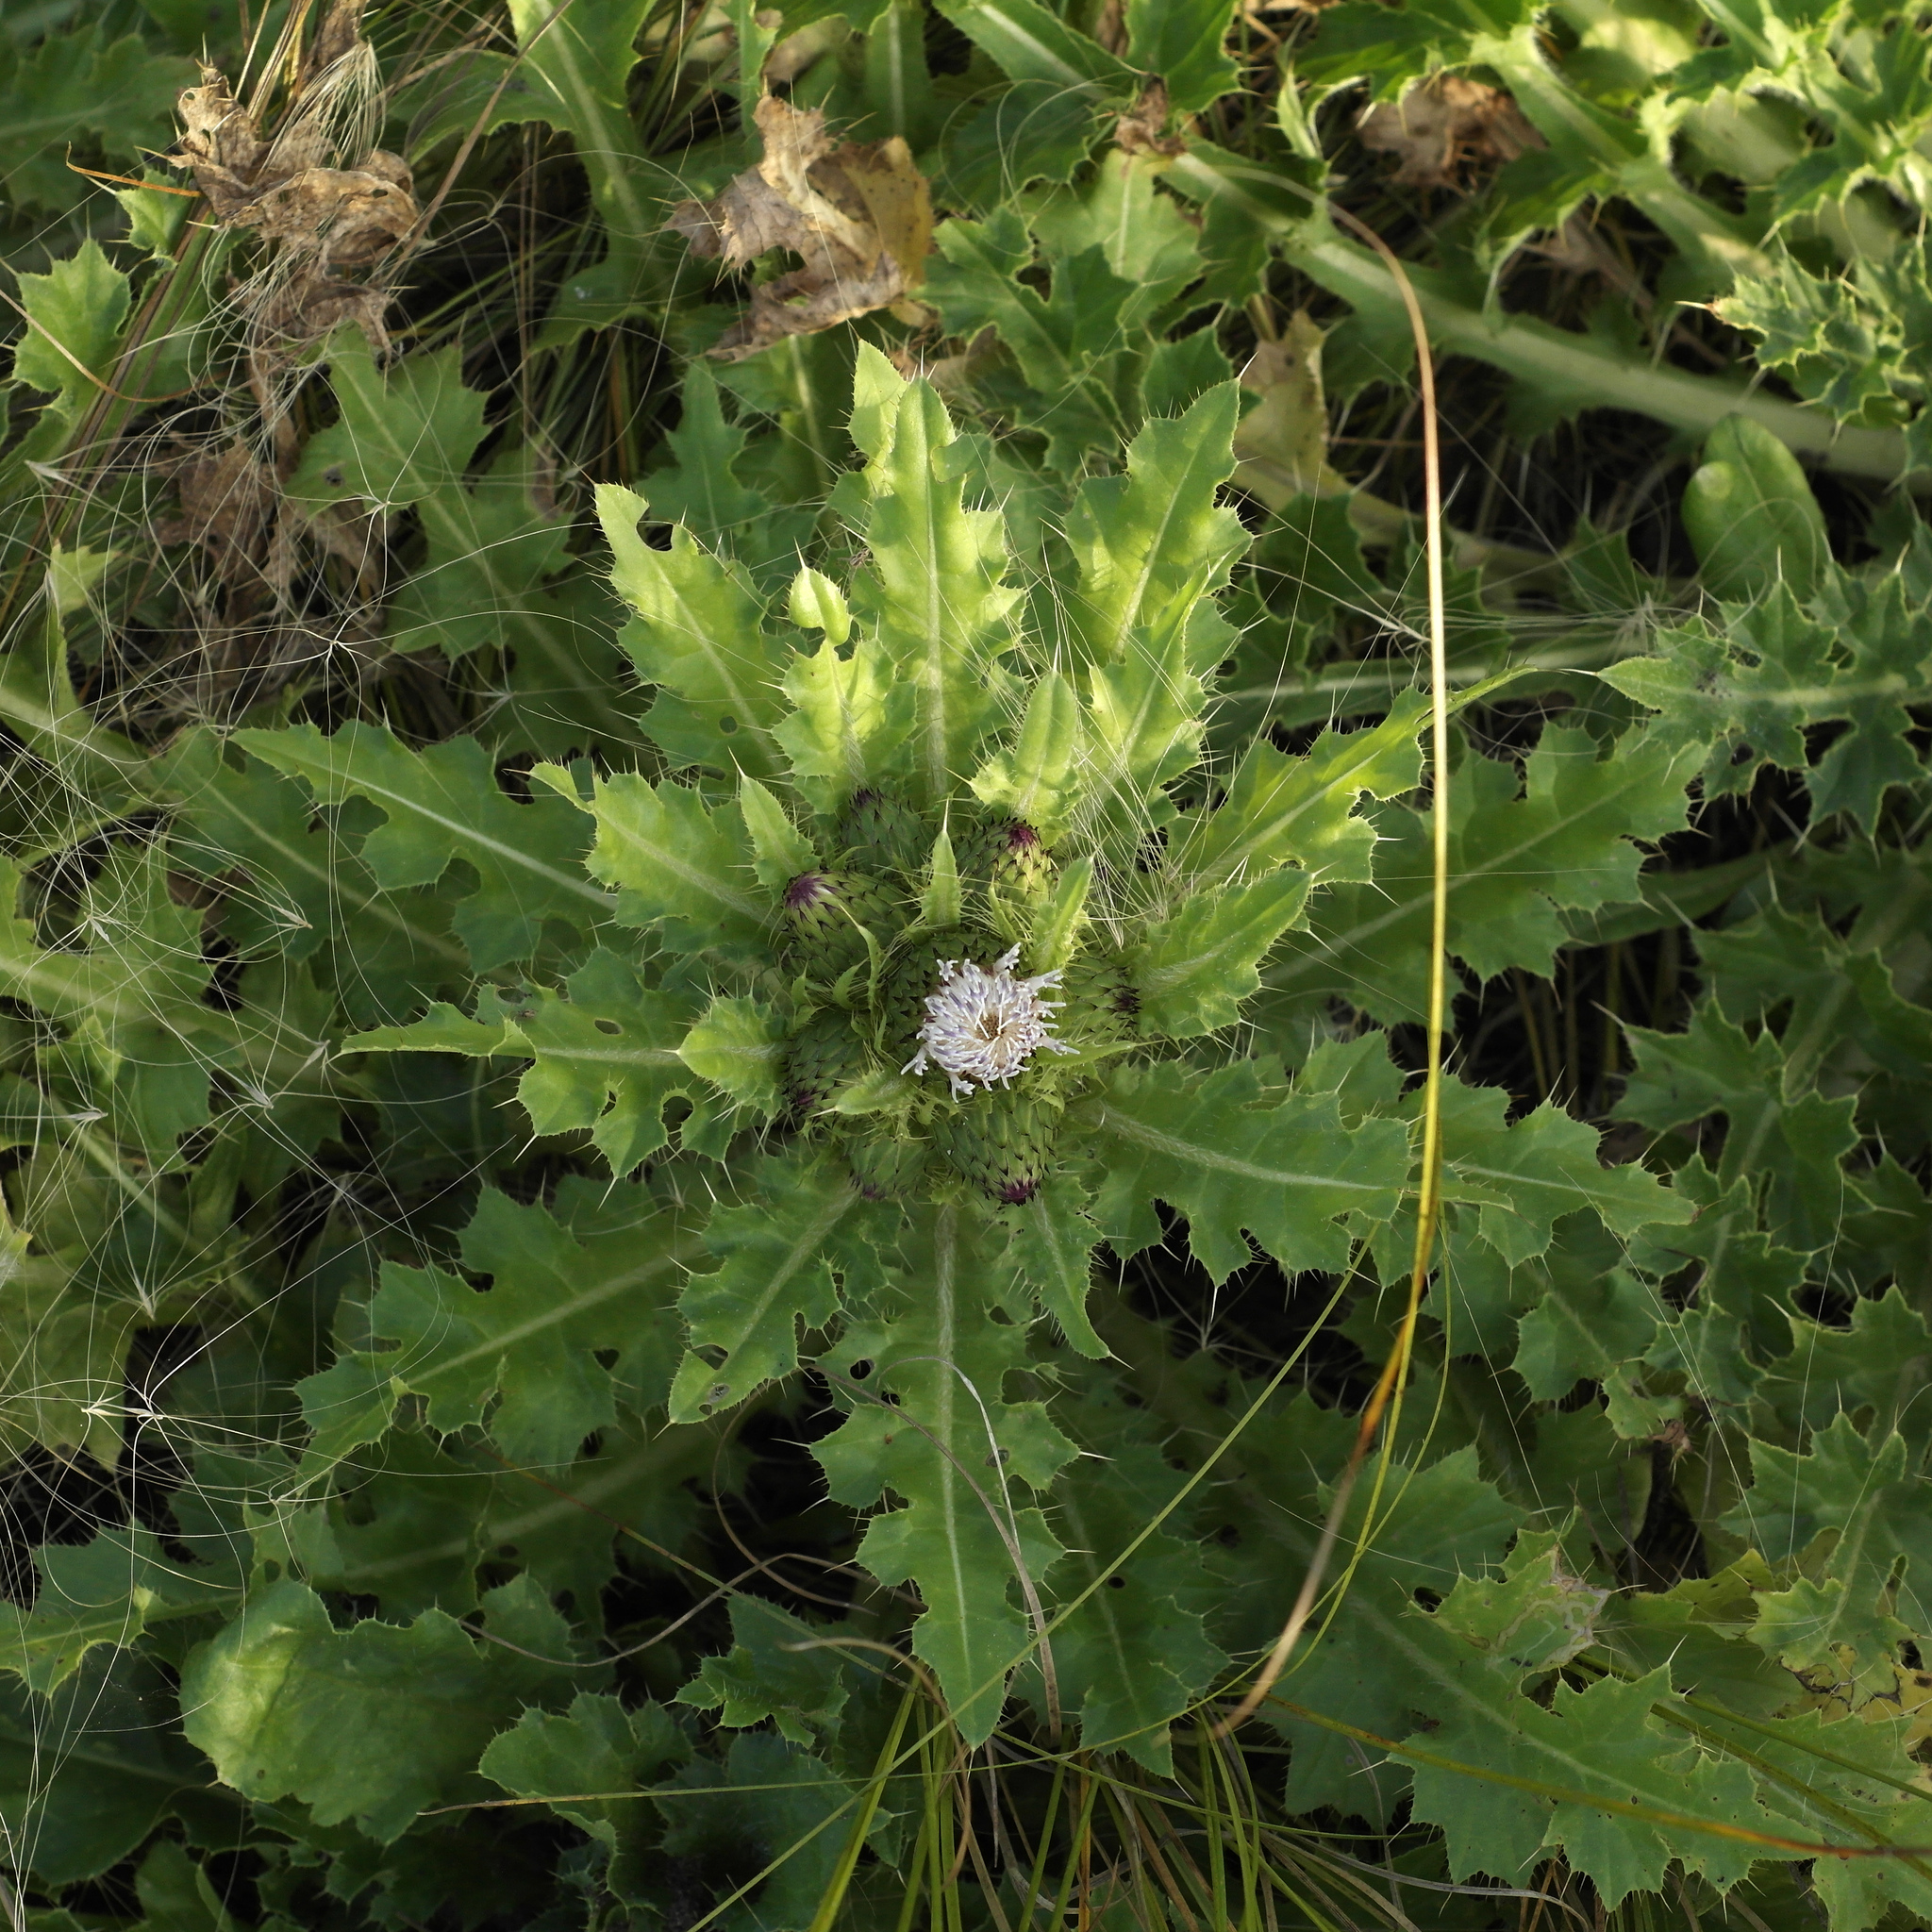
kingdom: Plantae
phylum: Tracheophyta
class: Magnoliopsida
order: Asterales
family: Asteraceae
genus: Cirsium
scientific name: Cirsium esculentum
